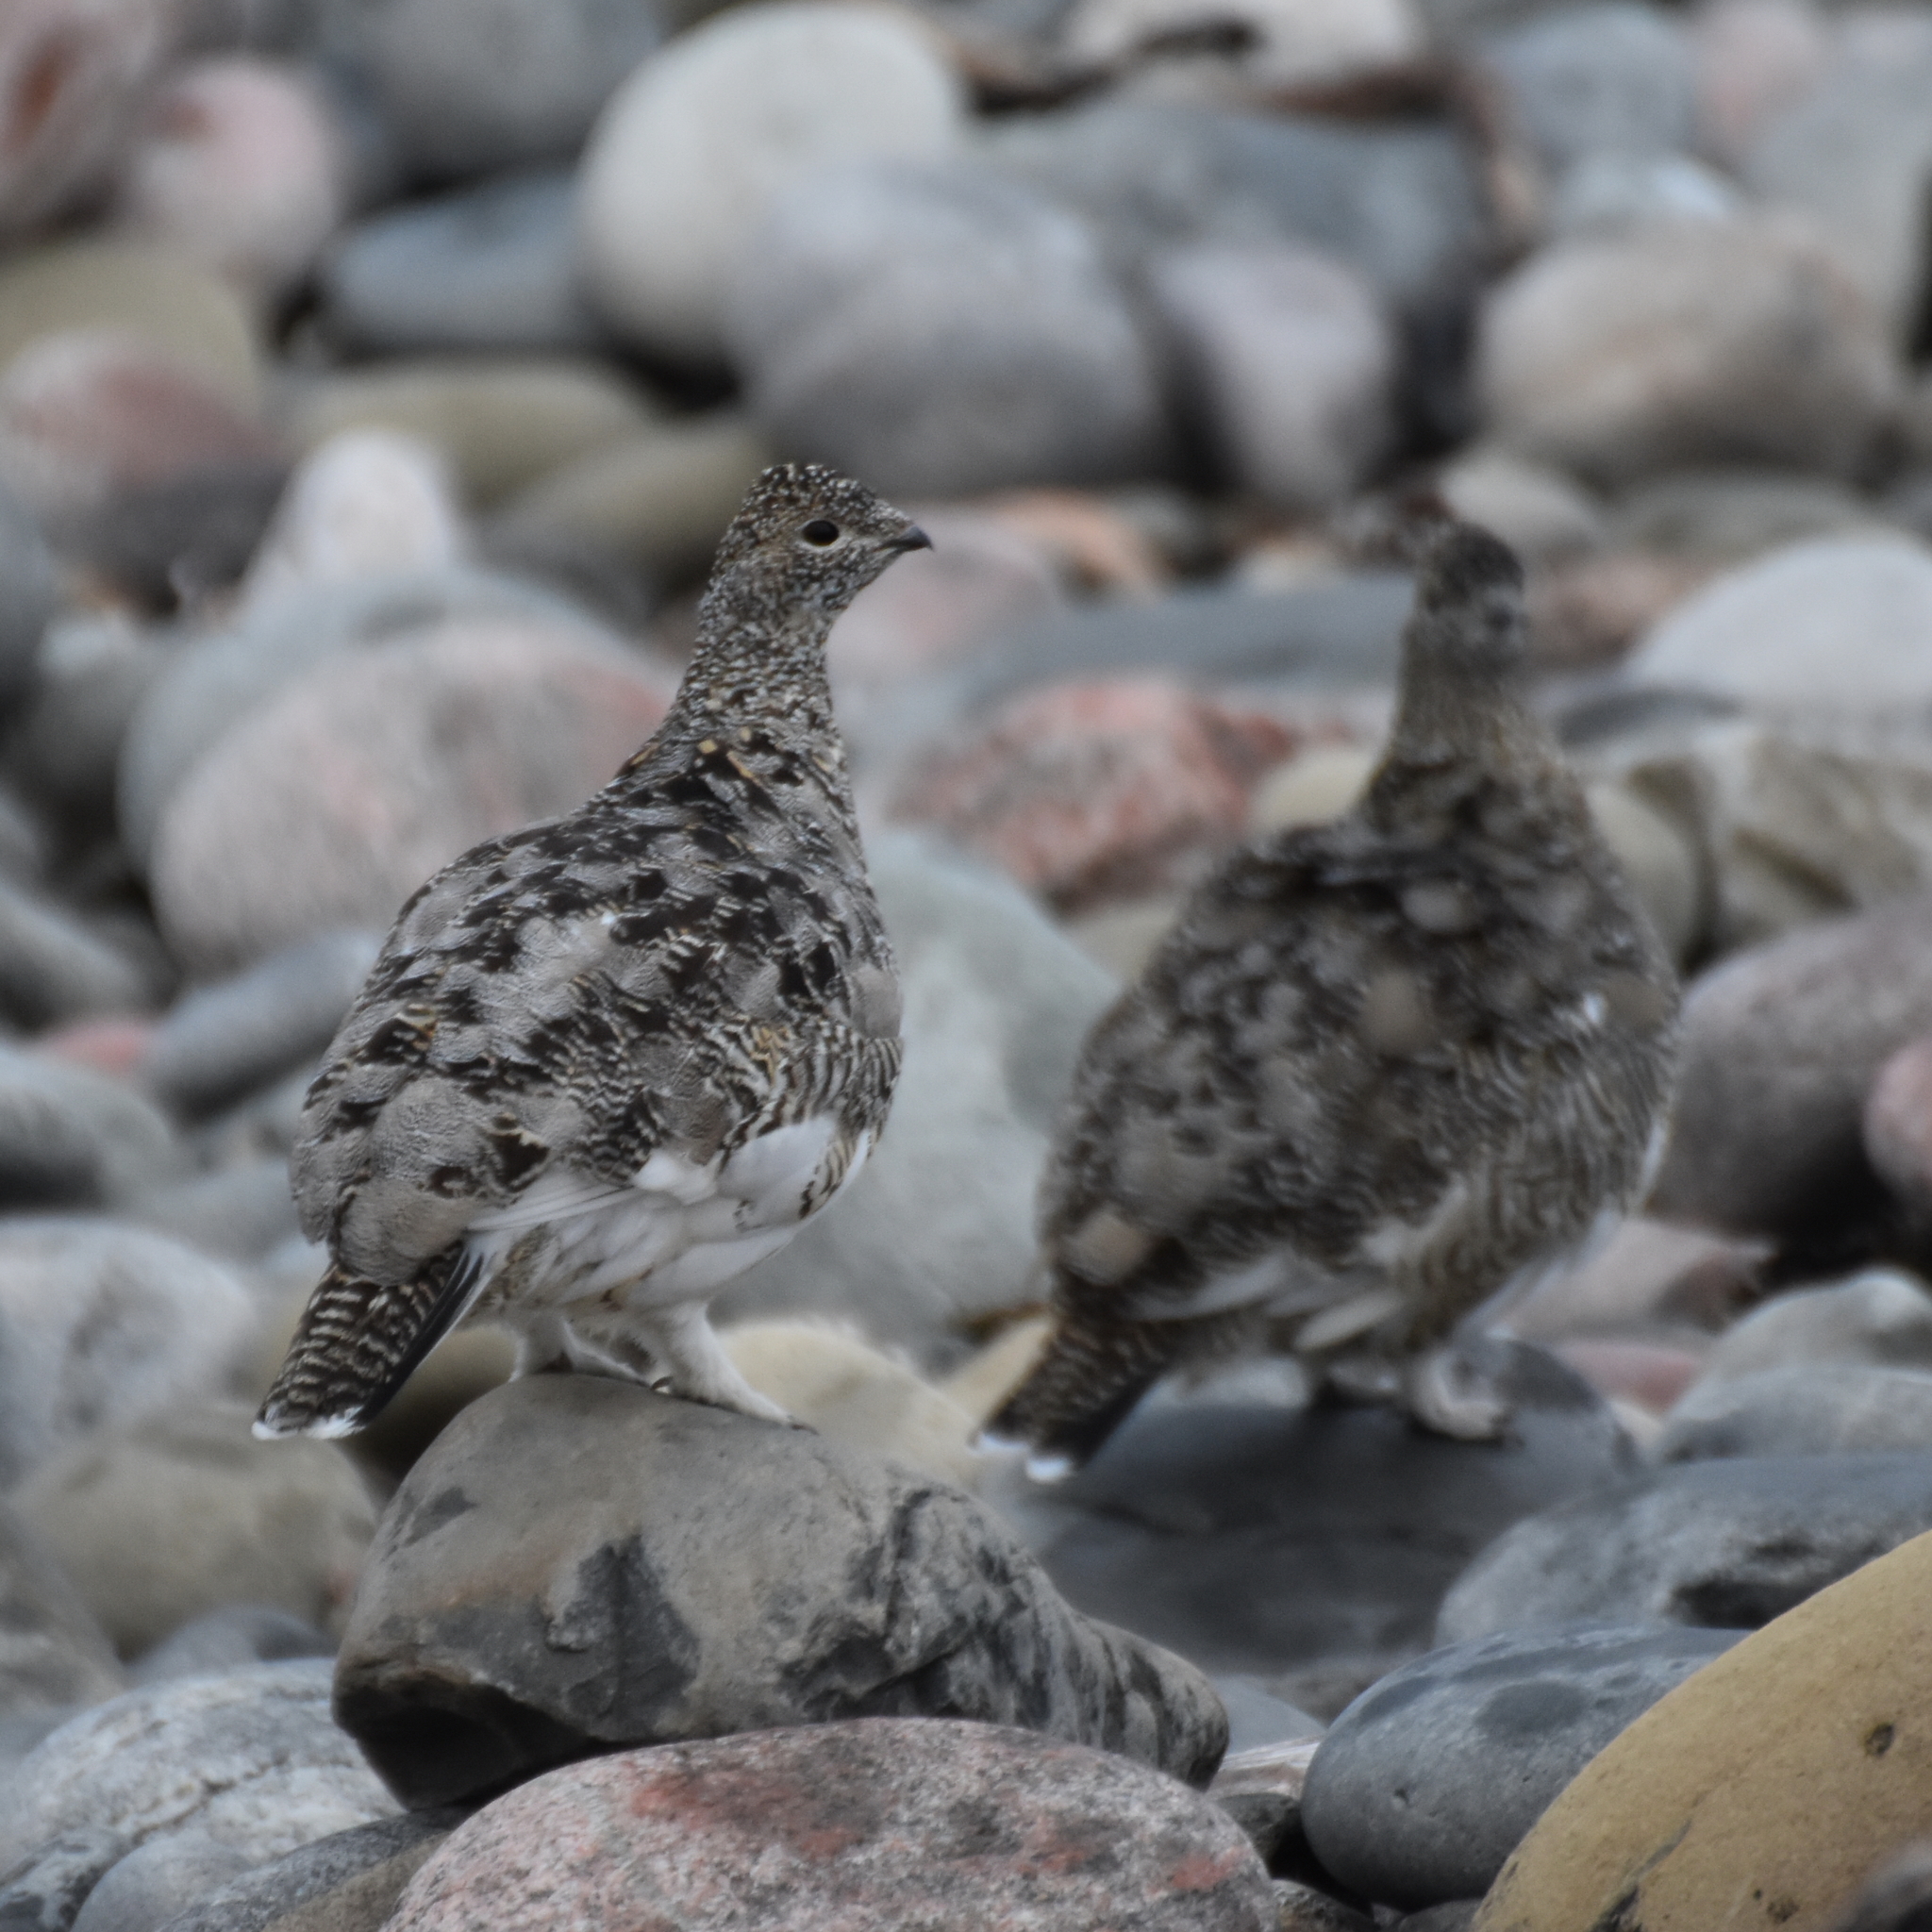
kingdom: Animalia
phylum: Chordata
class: Aves
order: Galliformes
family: Phasianidae
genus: Lagopus
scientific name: Lagopus muta
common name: Rock ptarmigan
